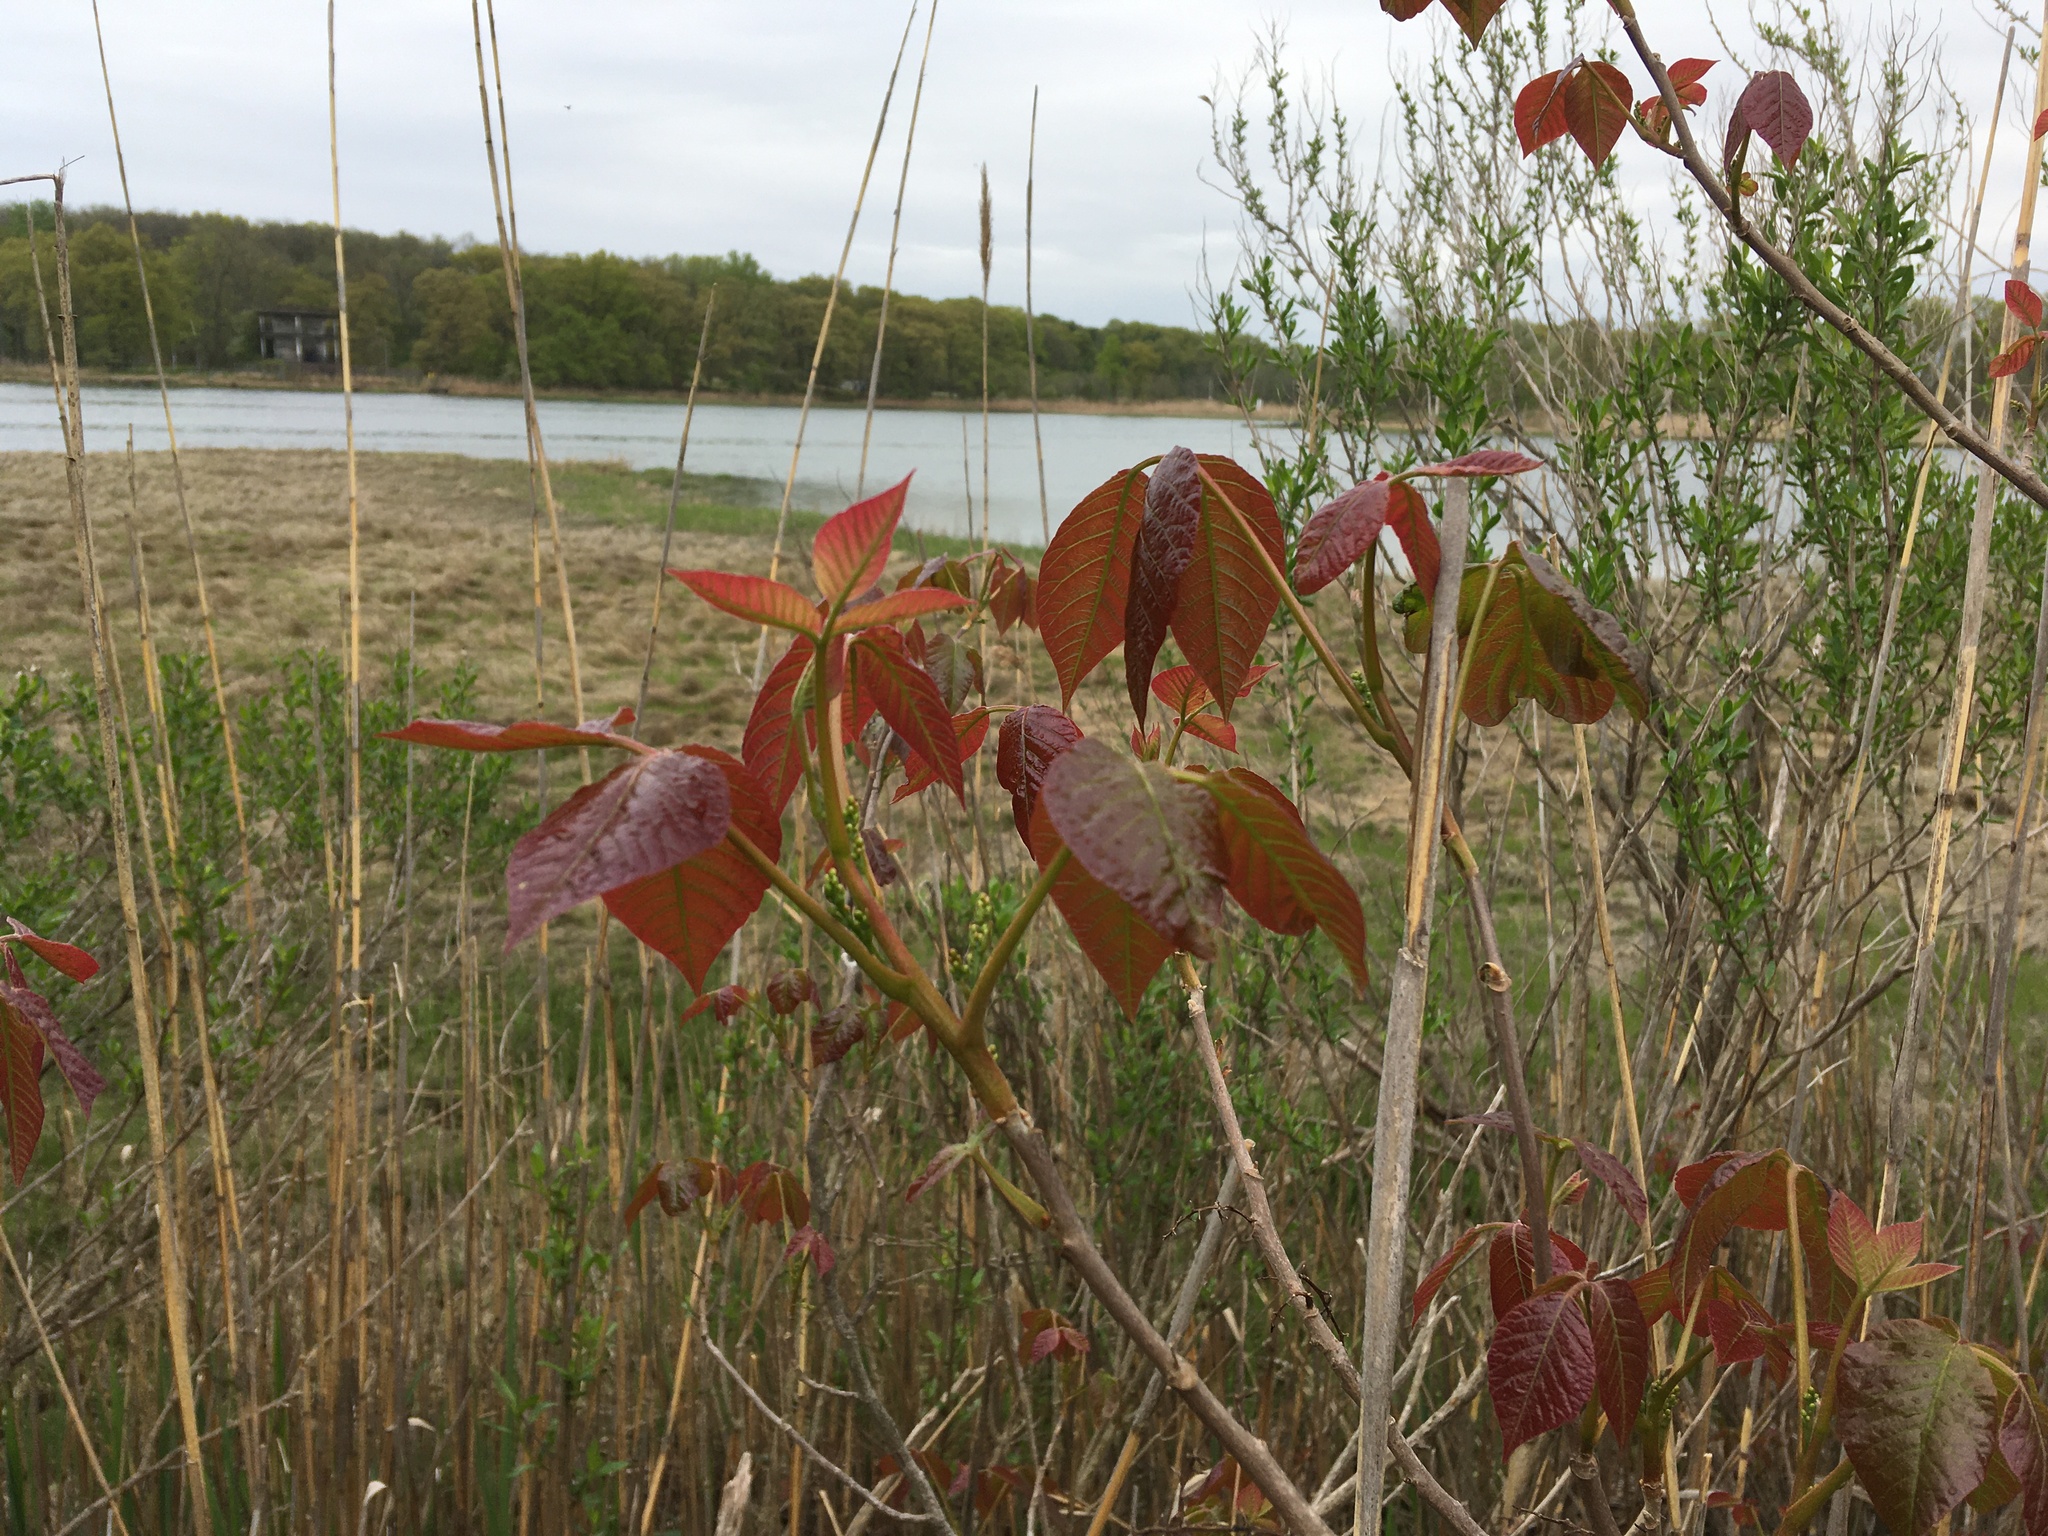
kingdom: Plantae
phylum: Tracheophyta
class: Magnoliopsida
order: Sapindales
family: Anacardiaceae
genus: Toxicodendron
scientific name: Toxicodendron radicans
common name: Poison ivy
